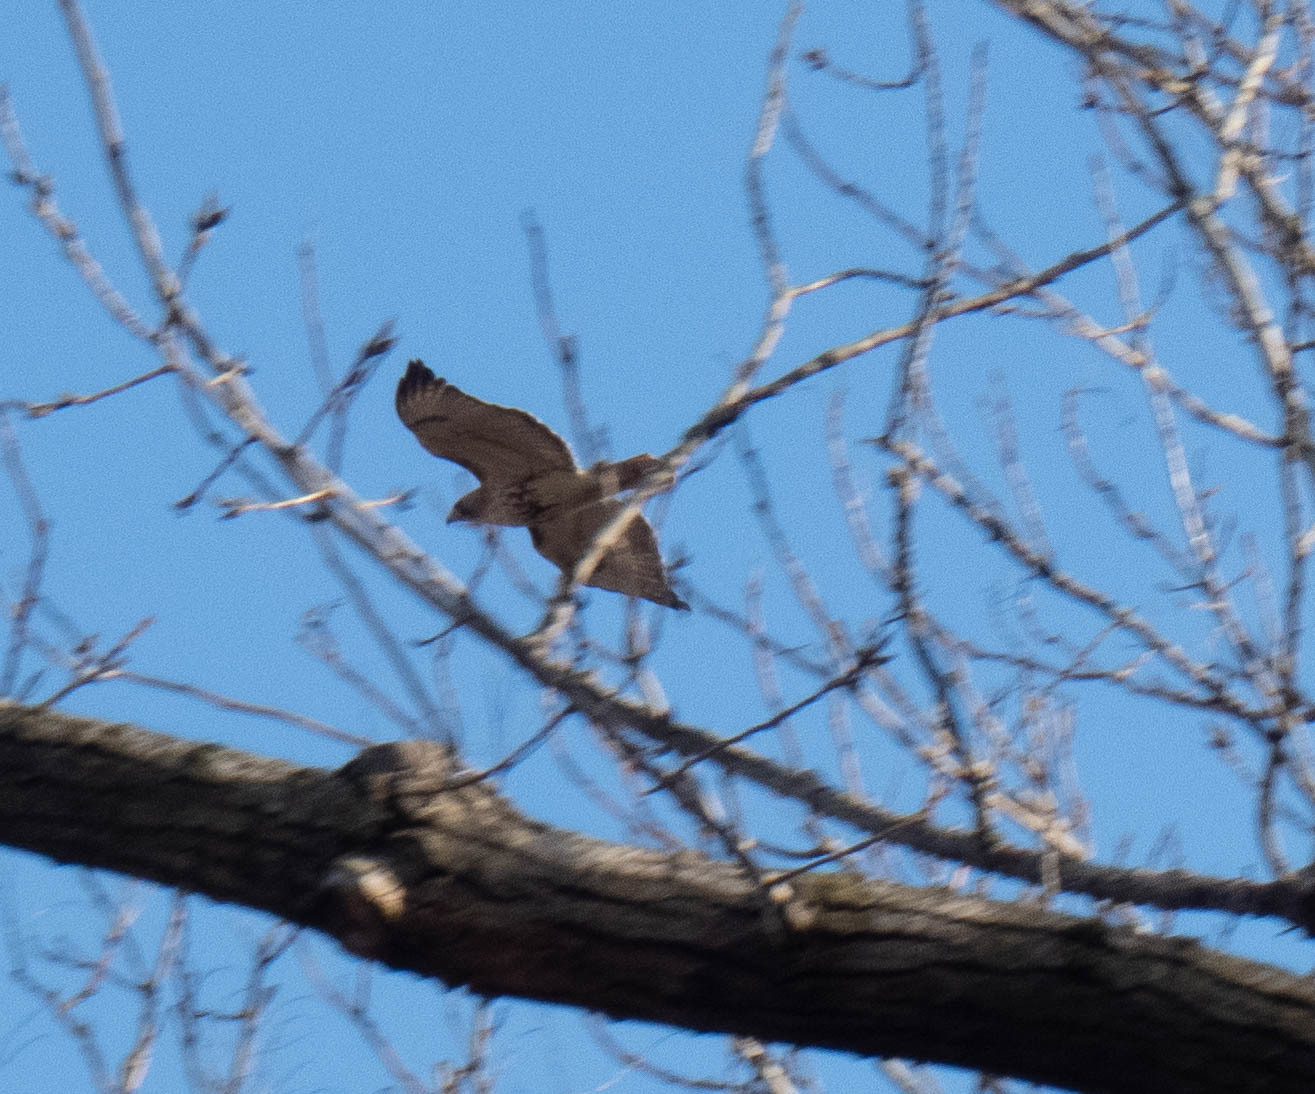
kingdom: Animalia
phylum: Chordata
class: Aves
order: Accipitriformes
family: Accipitridae
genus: Buteo
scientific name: Buteo jamaicensis
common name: Red-tailed hawk
